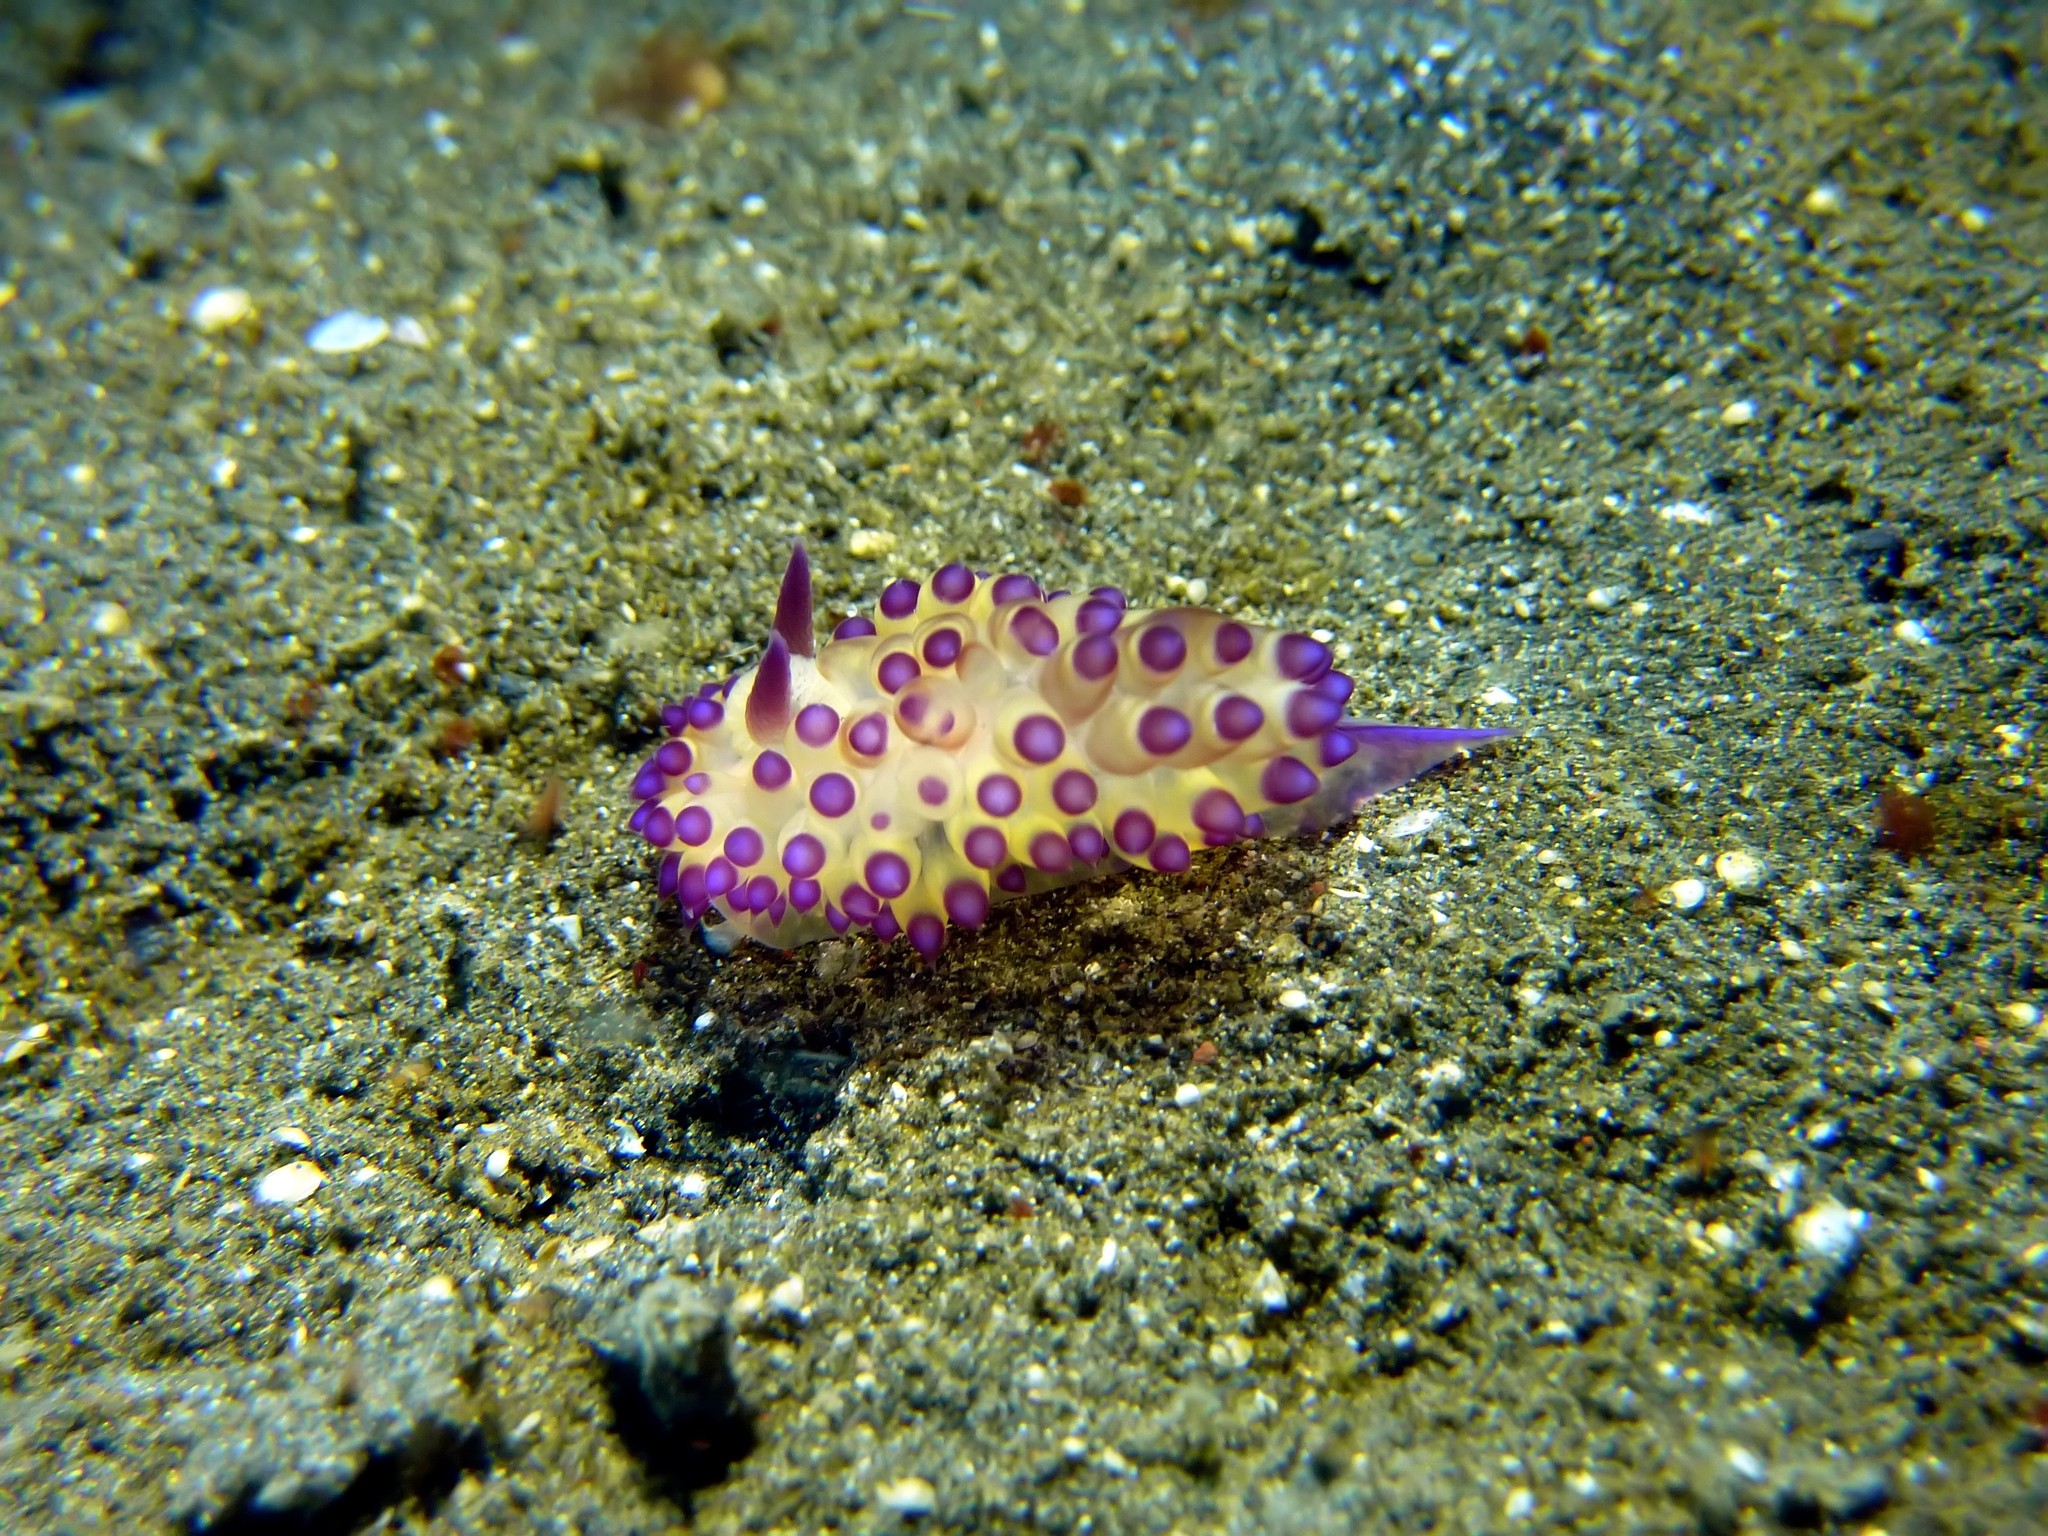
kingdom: Animalia
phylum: Mollusca
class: Gastropoda
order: Nudibranchia
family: Janolidae
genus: Janolus
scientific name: Janolus flavoanulatus
